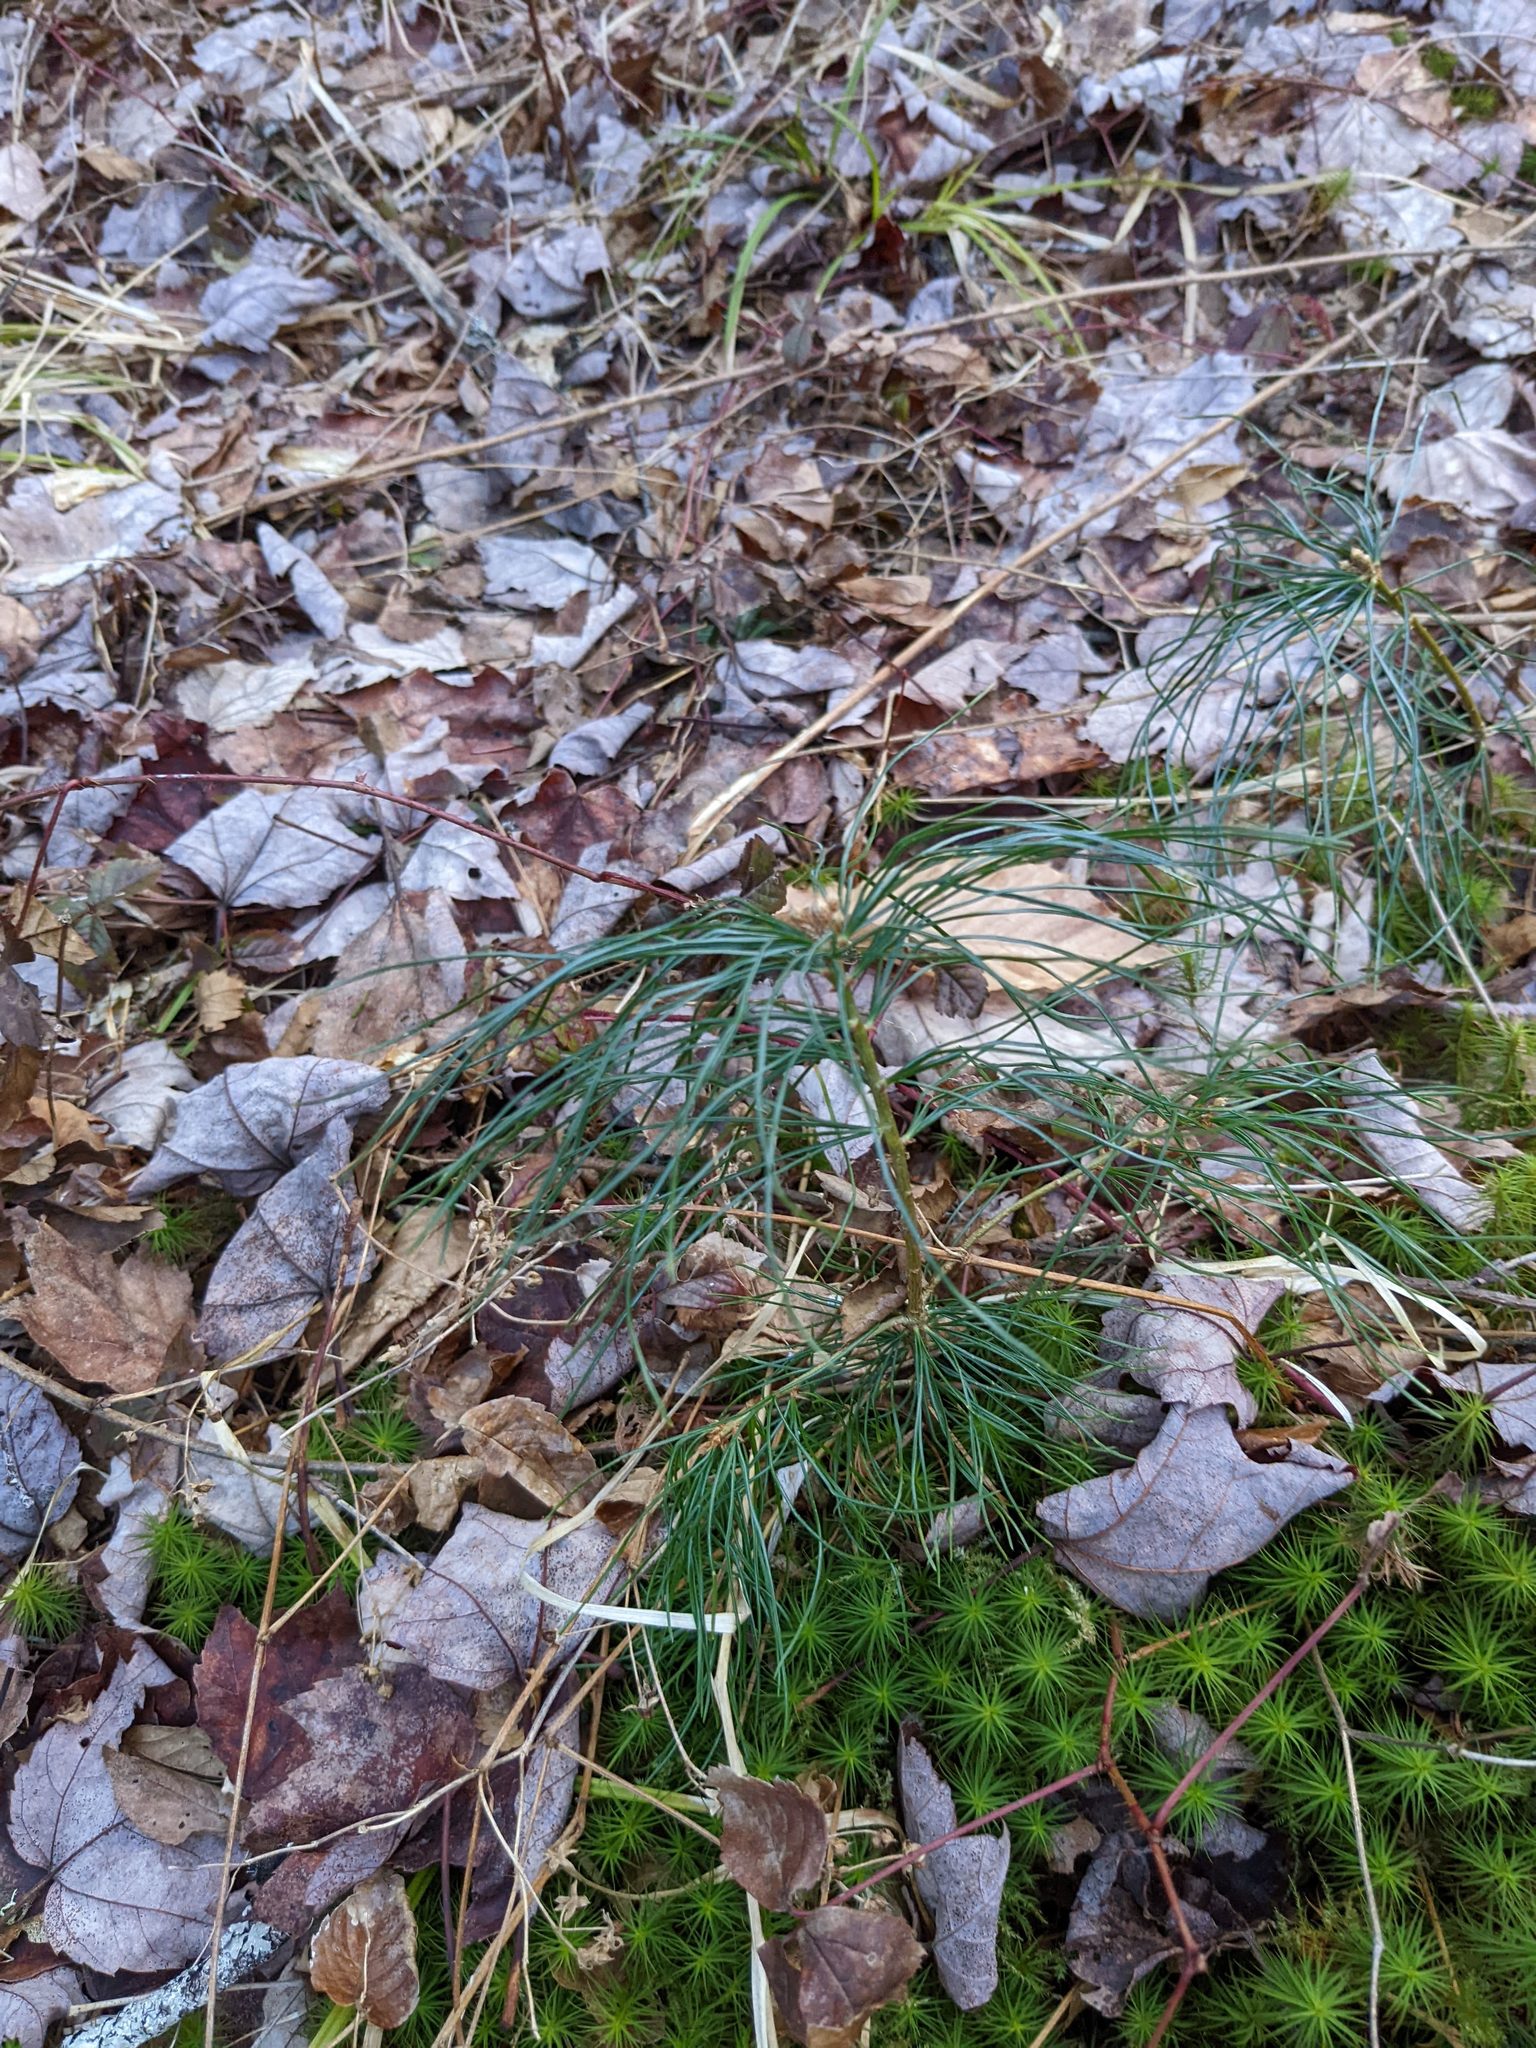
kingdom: Plantae
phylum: Tracheophyta
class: Pinopsida
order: Pinales
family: Pinaceae
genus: Pinus
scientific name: Pinus strobus
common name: Weymouth pine
